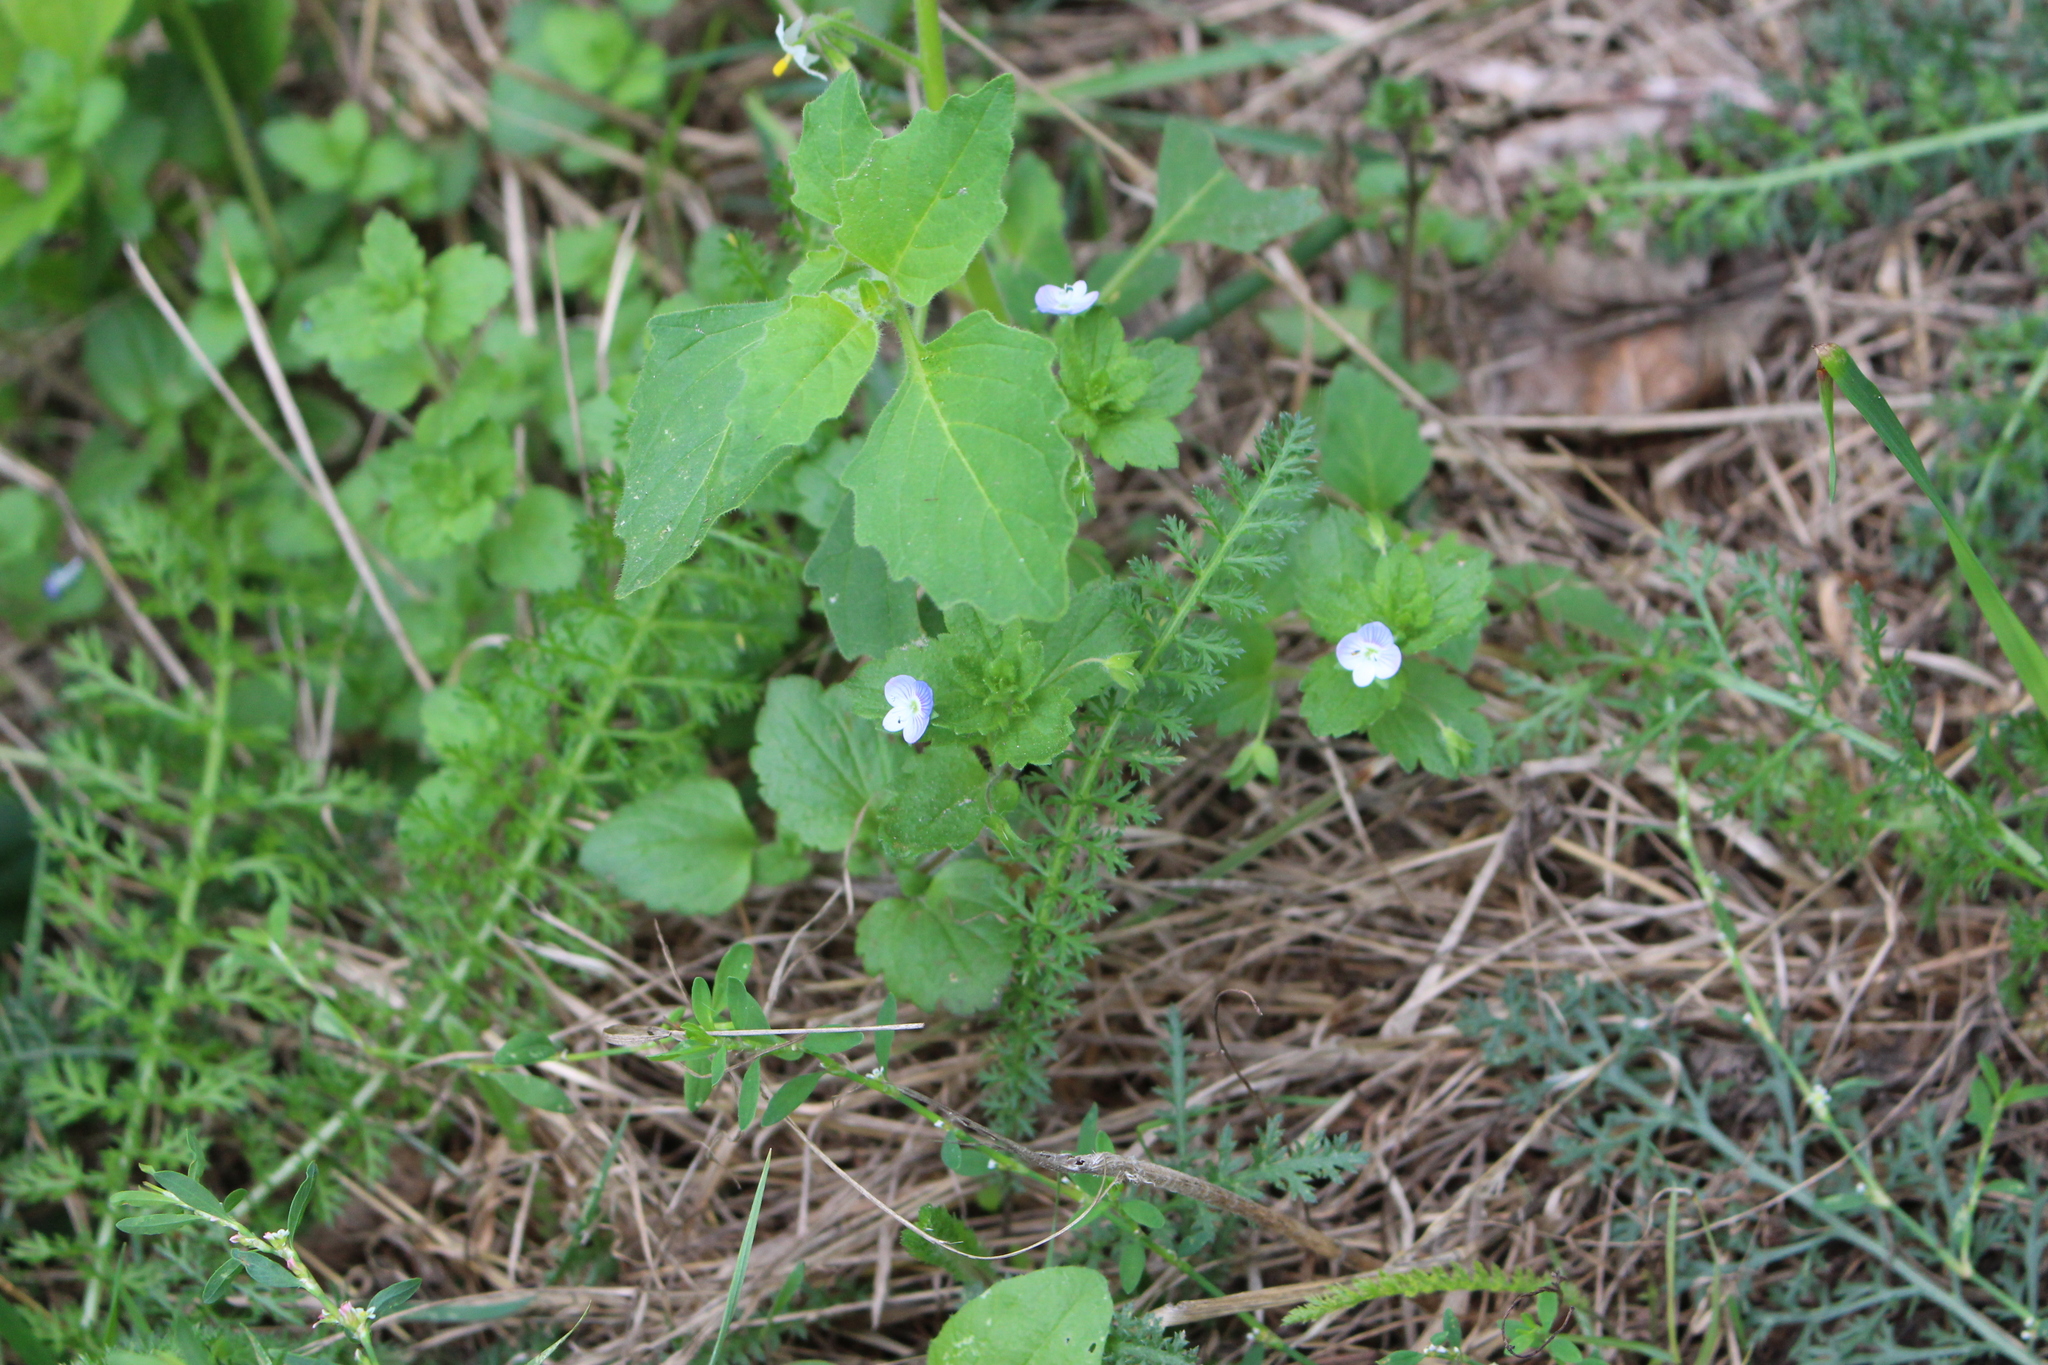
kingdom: Plantae
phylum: Tracheophyta
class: Magnoliopsida
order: Lamiales
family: Plantaginaceae
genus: Veronica
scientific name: Veronica persica
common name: Common field-speedwell
